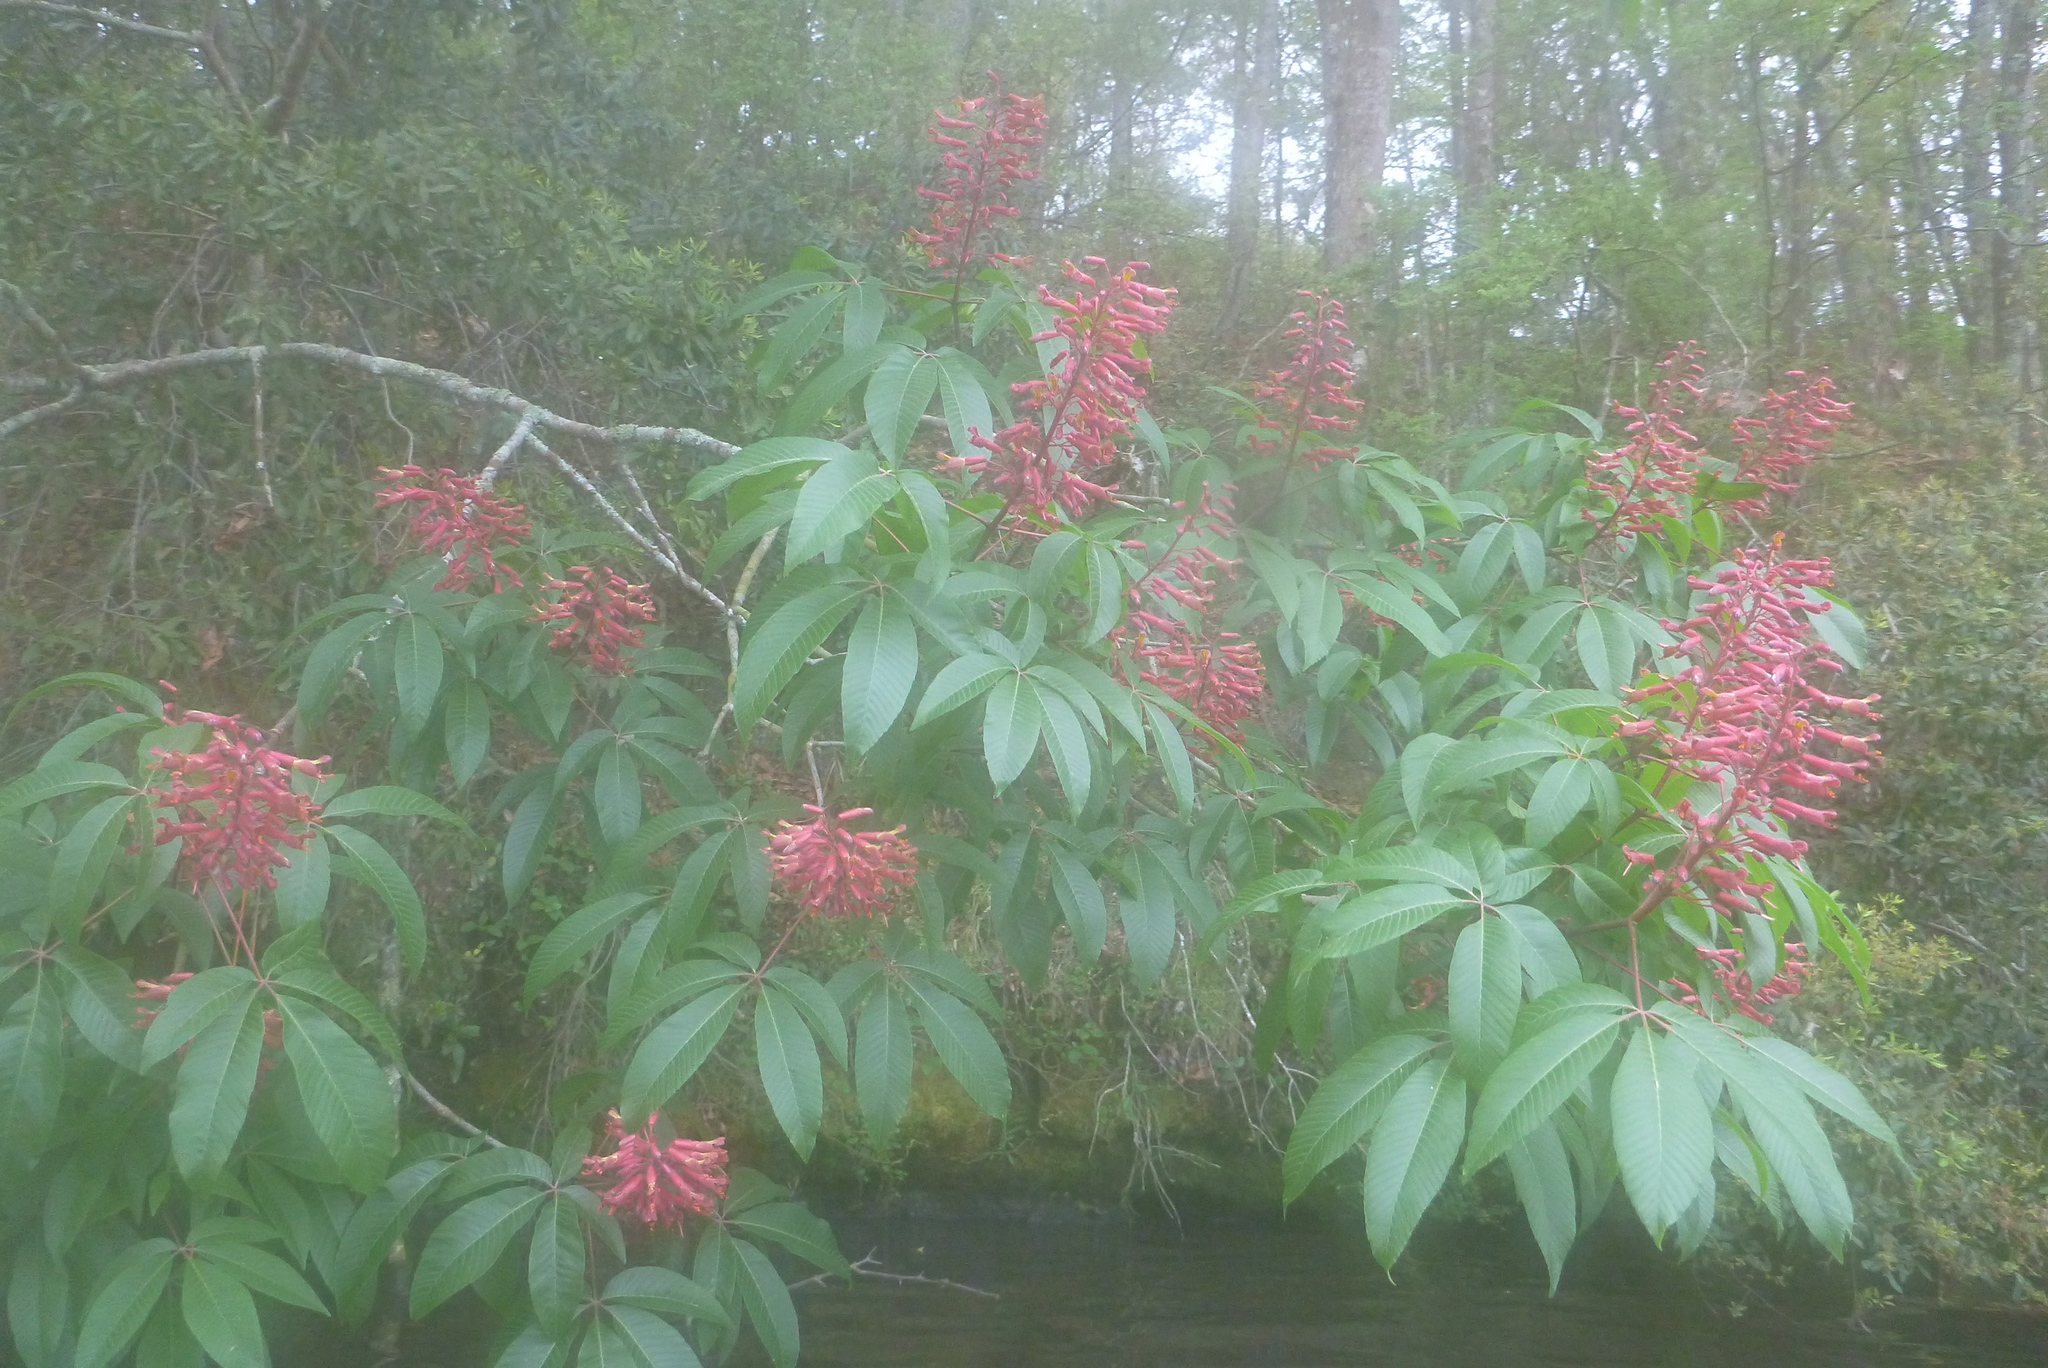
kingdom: Plantae
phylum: Tracheophyta
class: Magnoliopsida
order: Sapindales
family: Sapindaceae
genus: Aesculus
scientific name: Aesculus pavia
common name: Red buckeye
